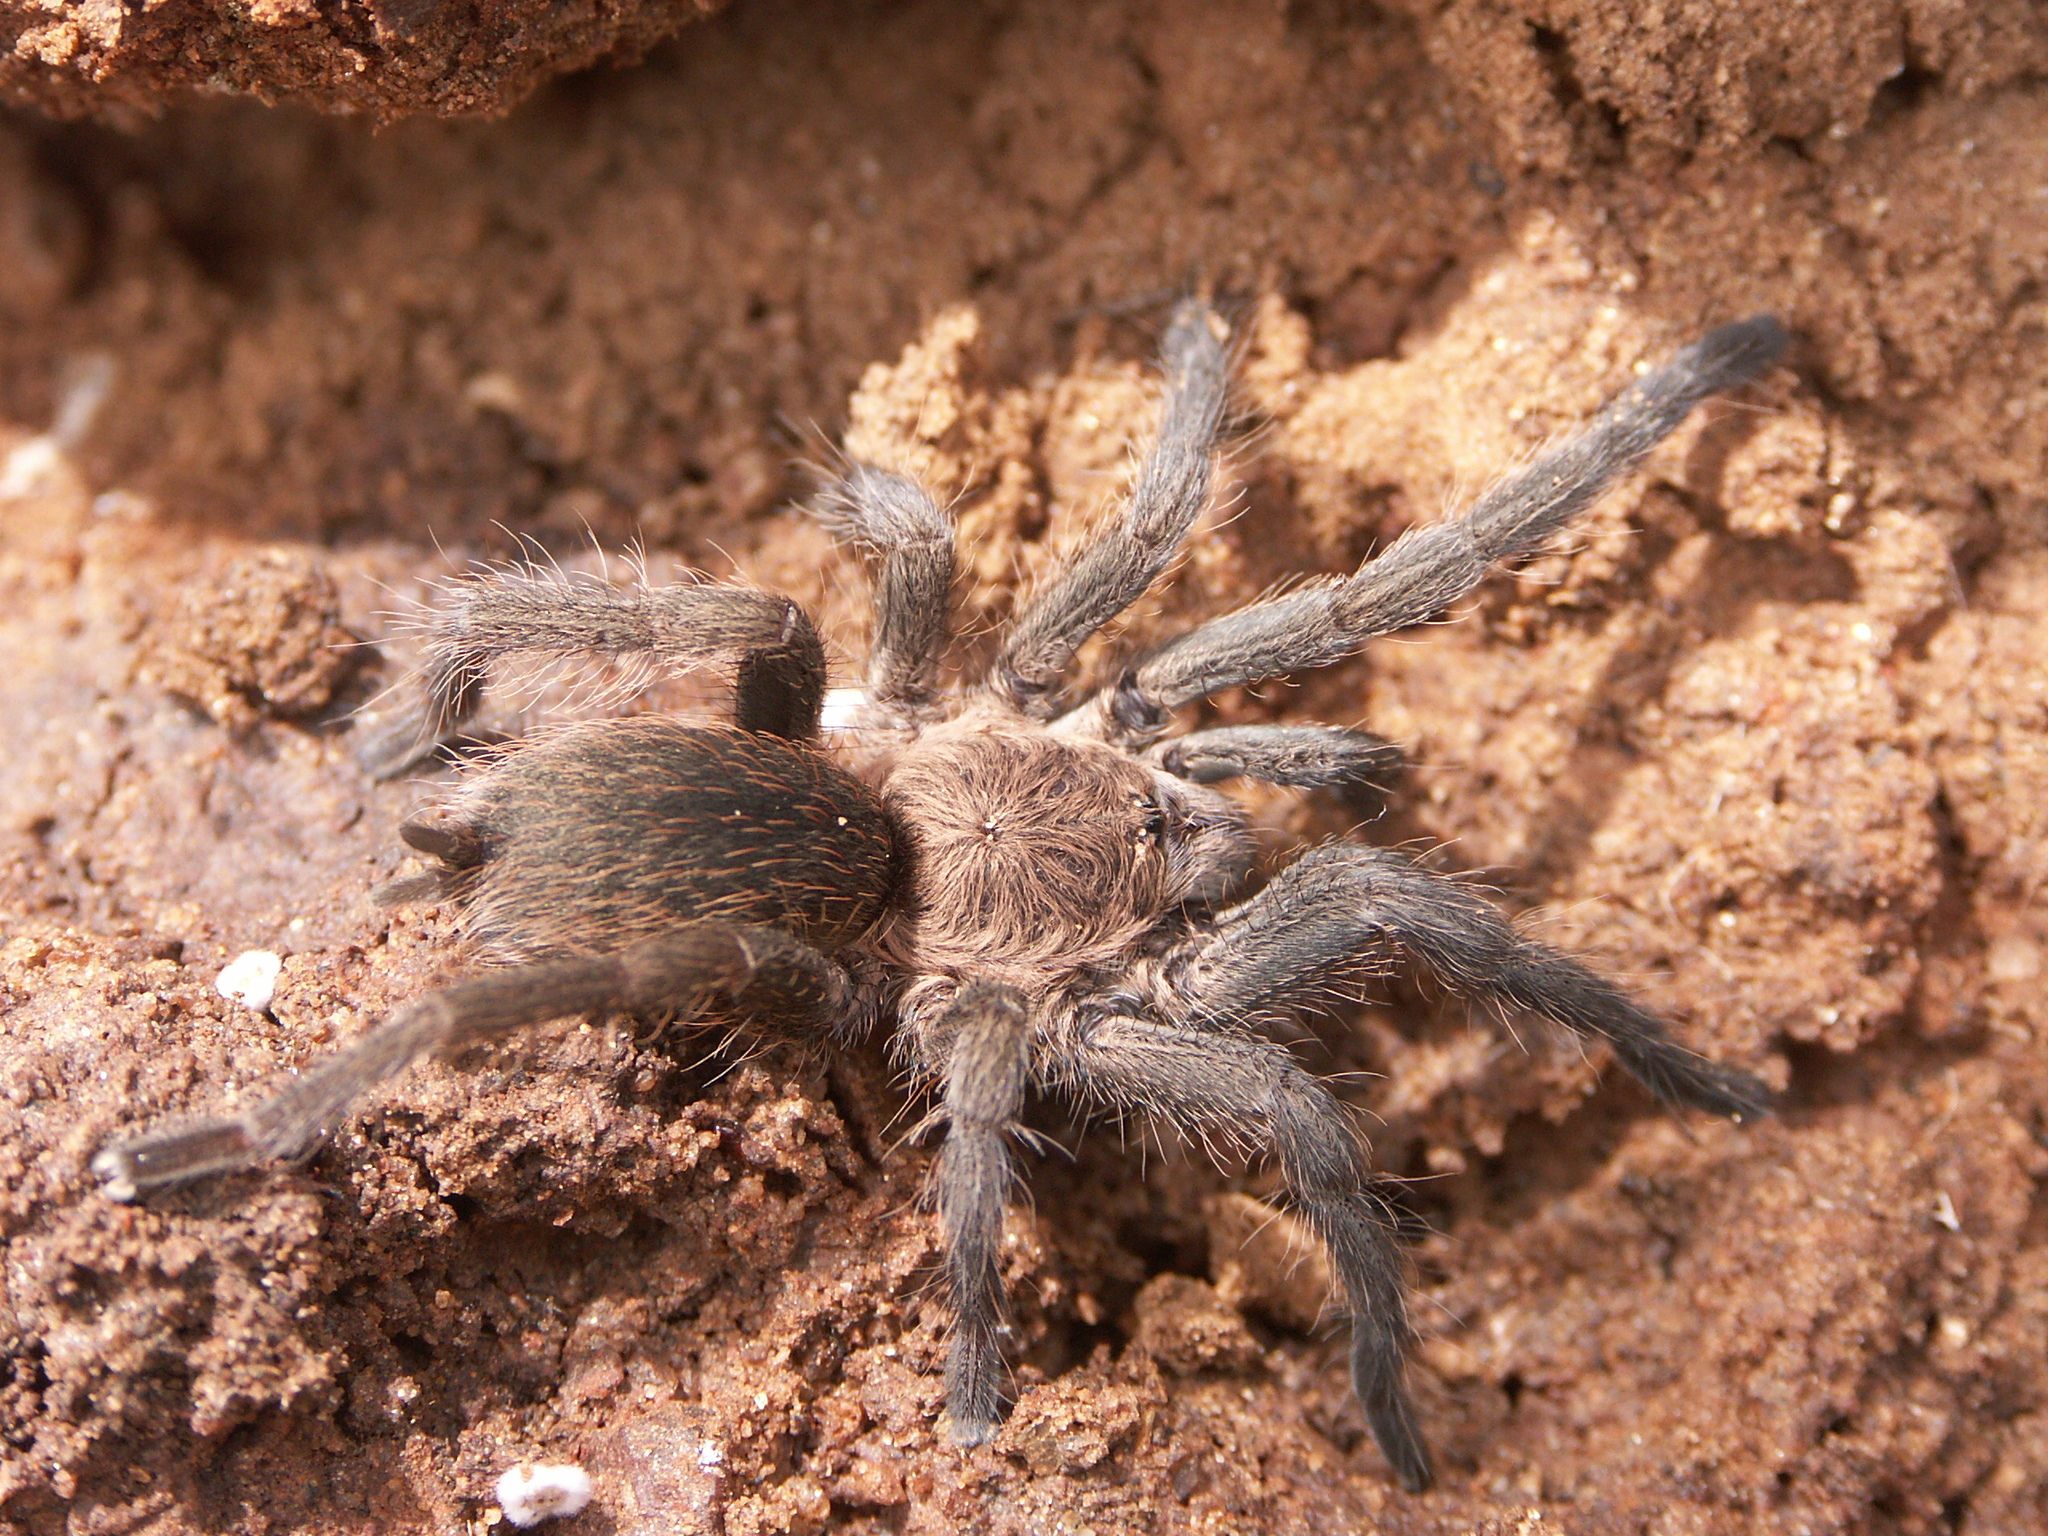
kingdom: Animalia
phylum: Arthropoda
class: Arachnida
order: Araneae
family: Theraphosidae
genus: Dolichothele
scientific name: Dolichothele exilis
